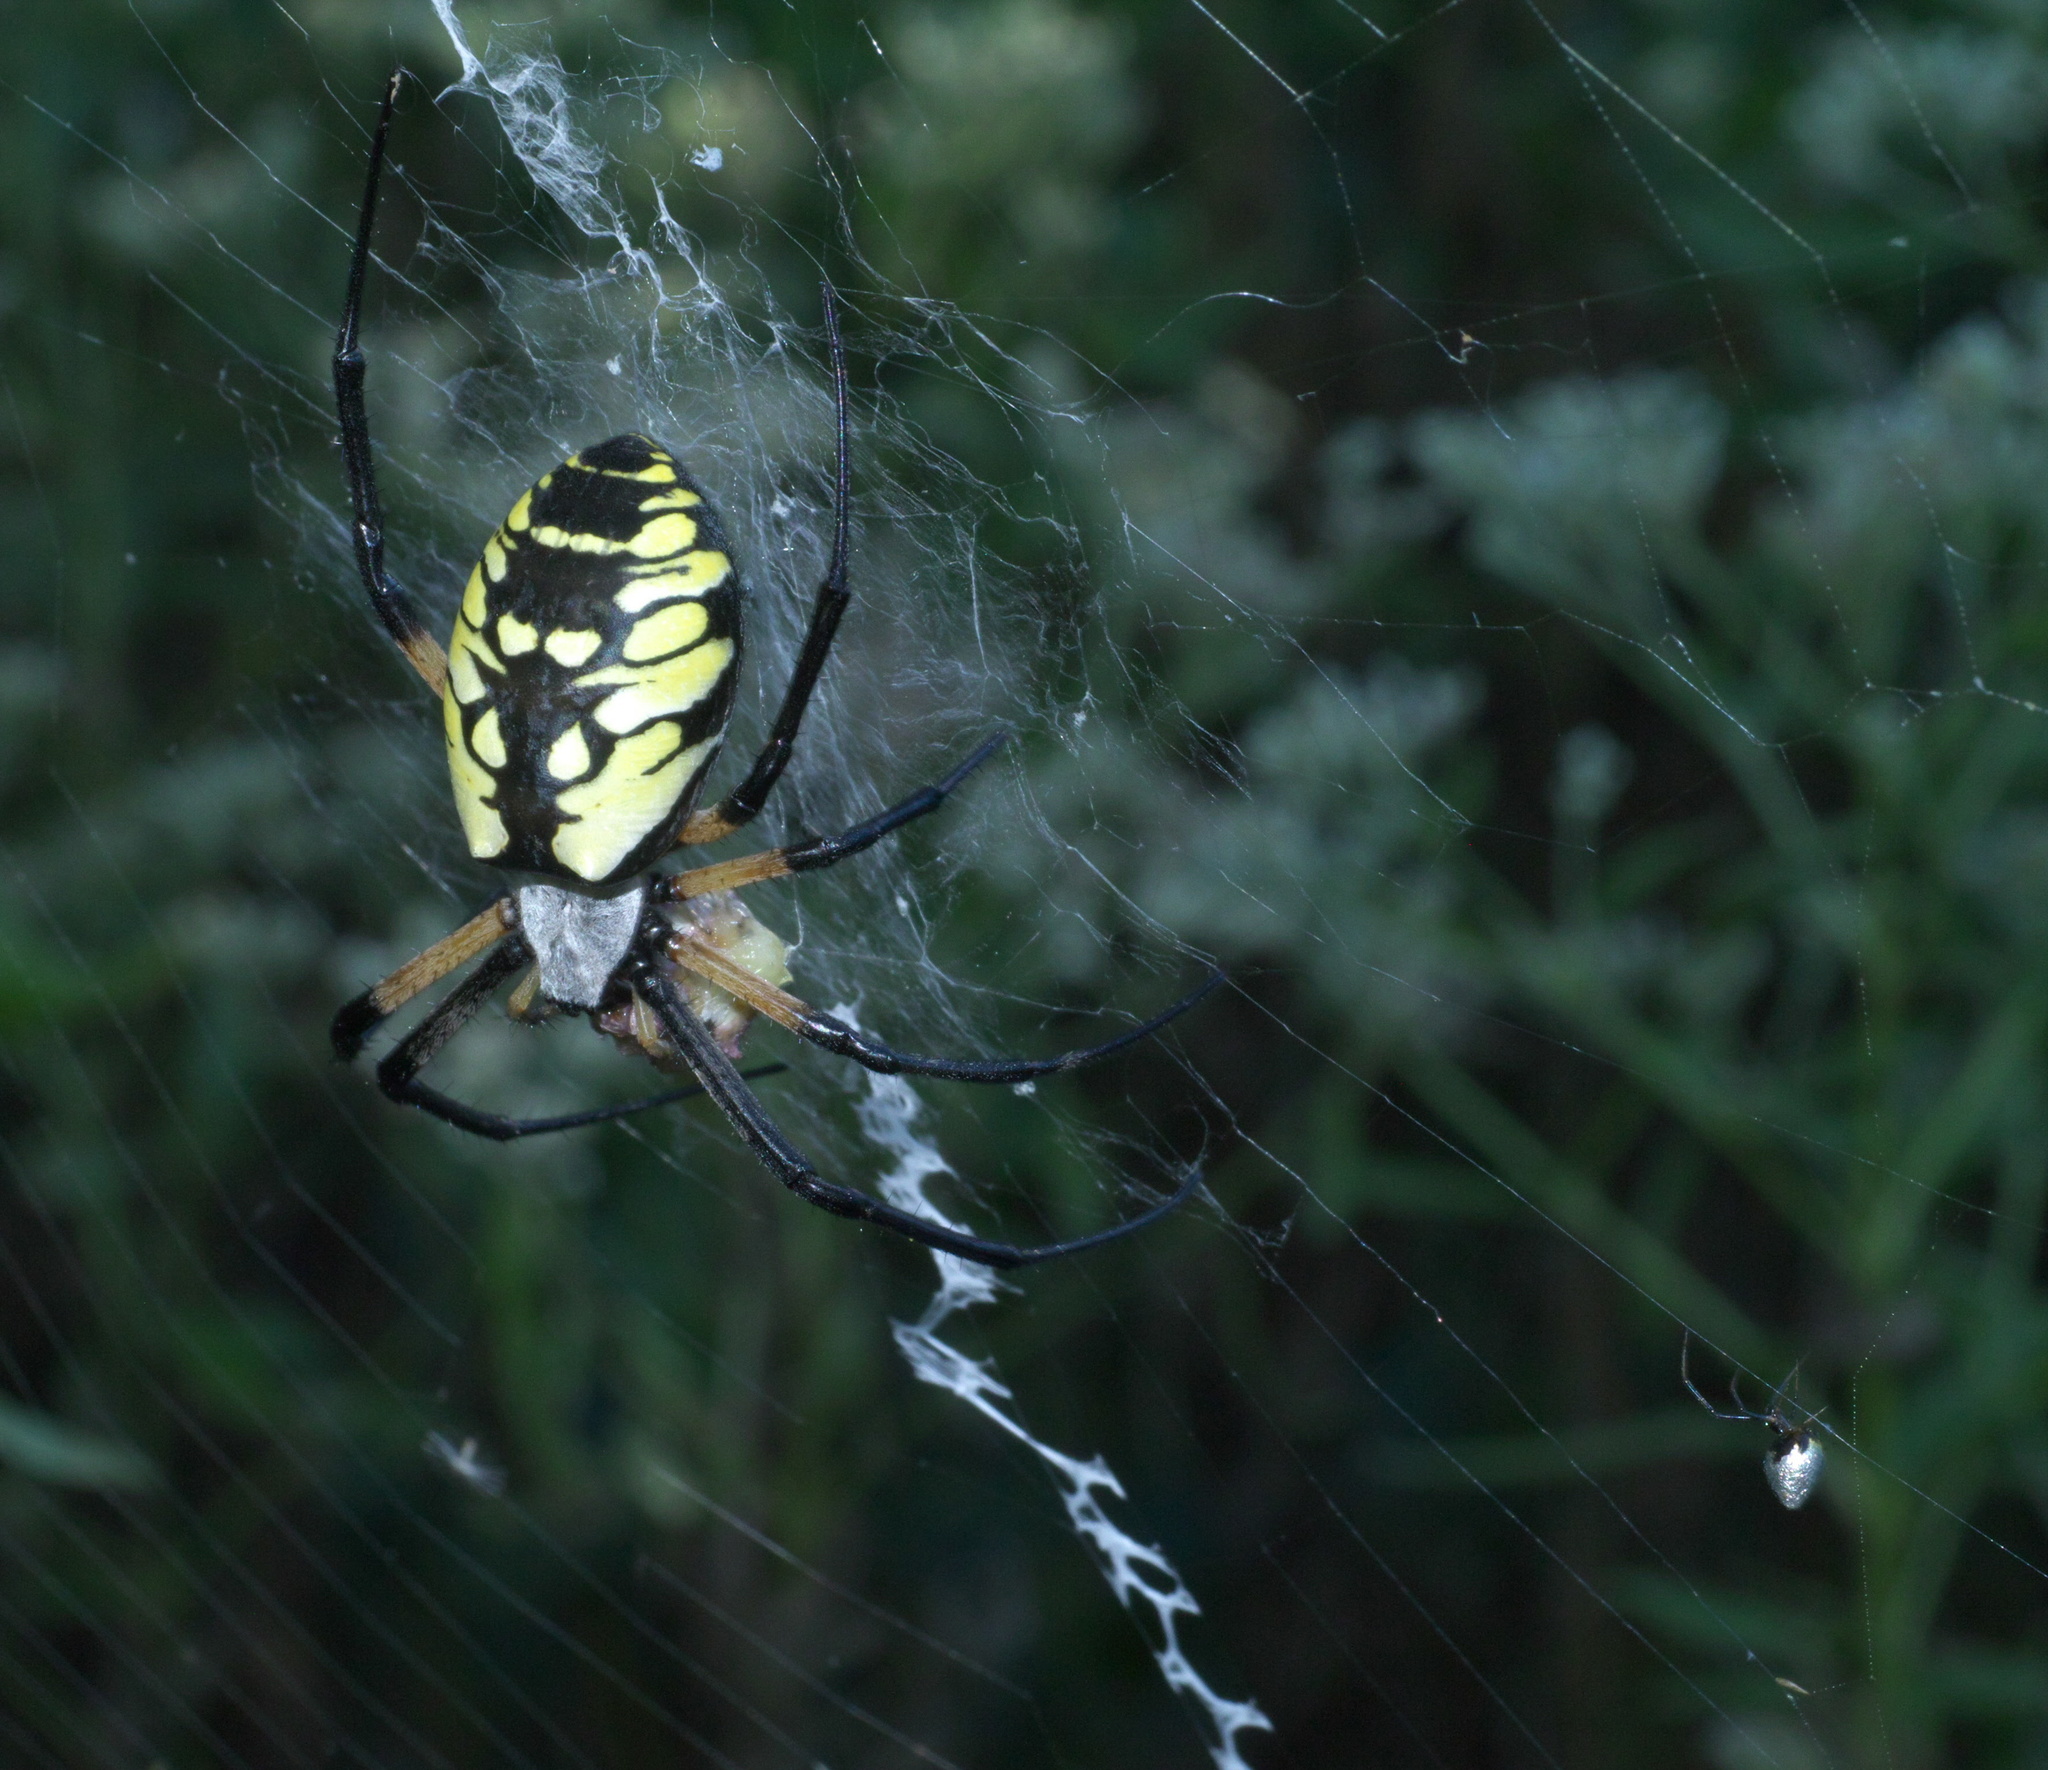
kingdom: Animalia
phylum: Arthropoda
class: Arachnida
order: Araneae
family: Araneidae
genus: Argiope
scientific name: Argiope aurantia
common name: Orb weavers
